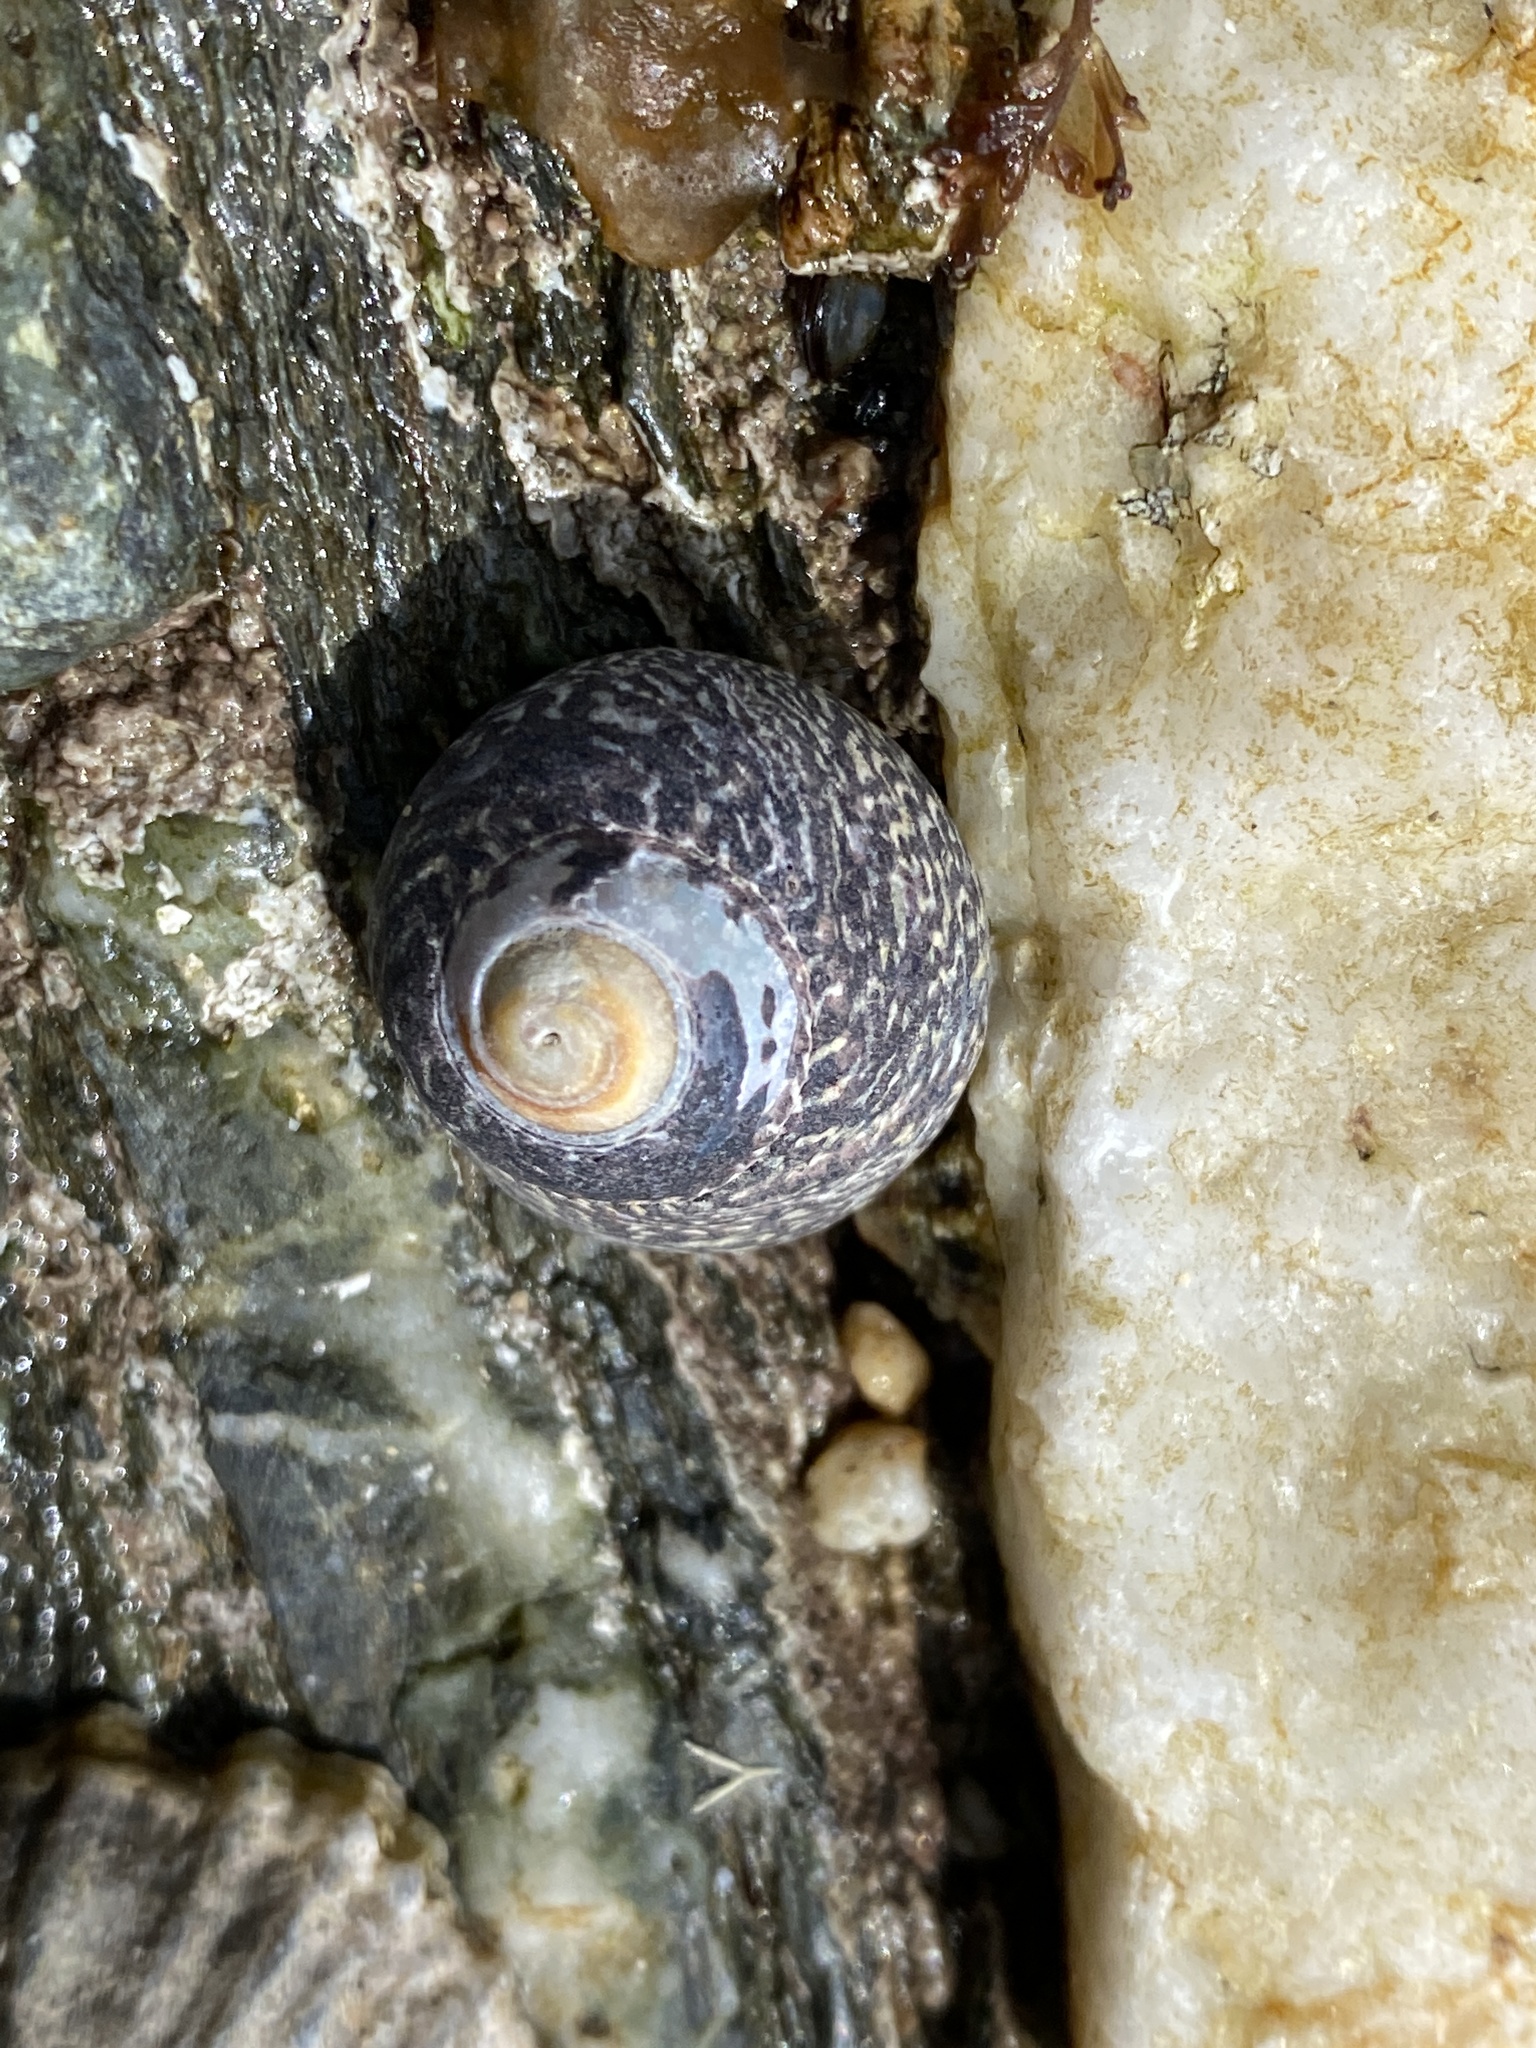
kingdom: Animalia
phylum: Mollusca
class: Gastropoda
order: Trochida
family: Trochidae
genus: Phorcus
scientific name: Phorcus lineatus
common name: Toothed top shell
